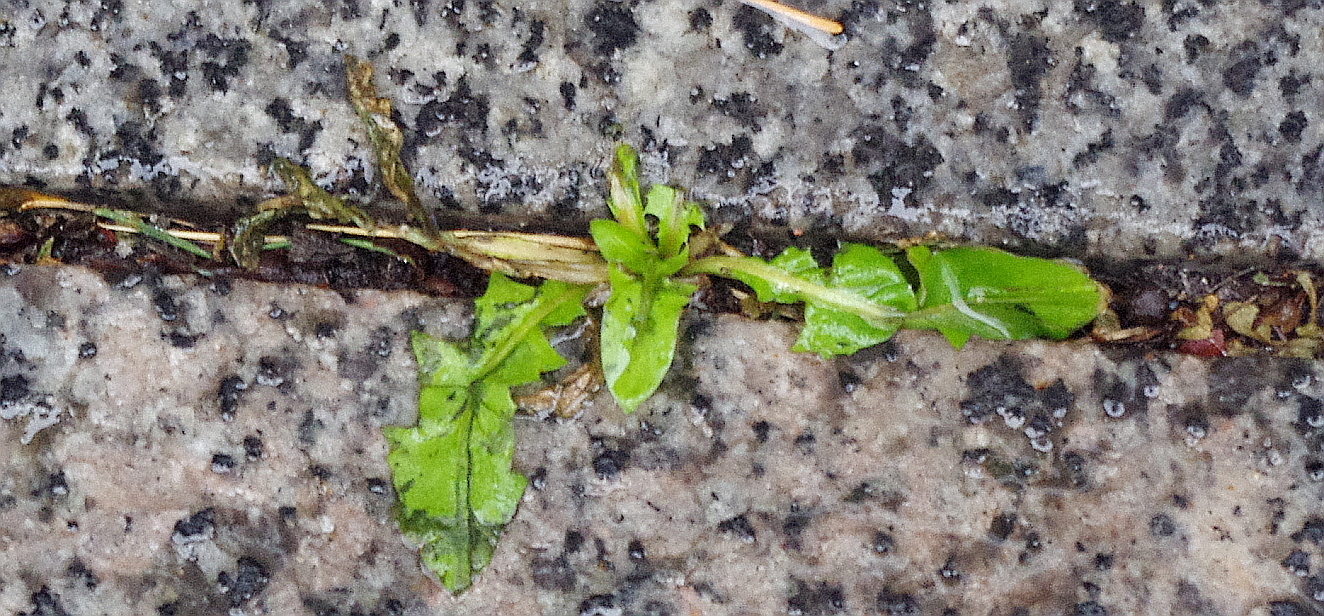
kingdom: Plantae
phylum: Tracheophyta
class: Magnoliopsida
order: Asterales
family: Asteraceae
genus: Taraxacum
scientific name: Taraxacum officinale
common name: Common dandelion
